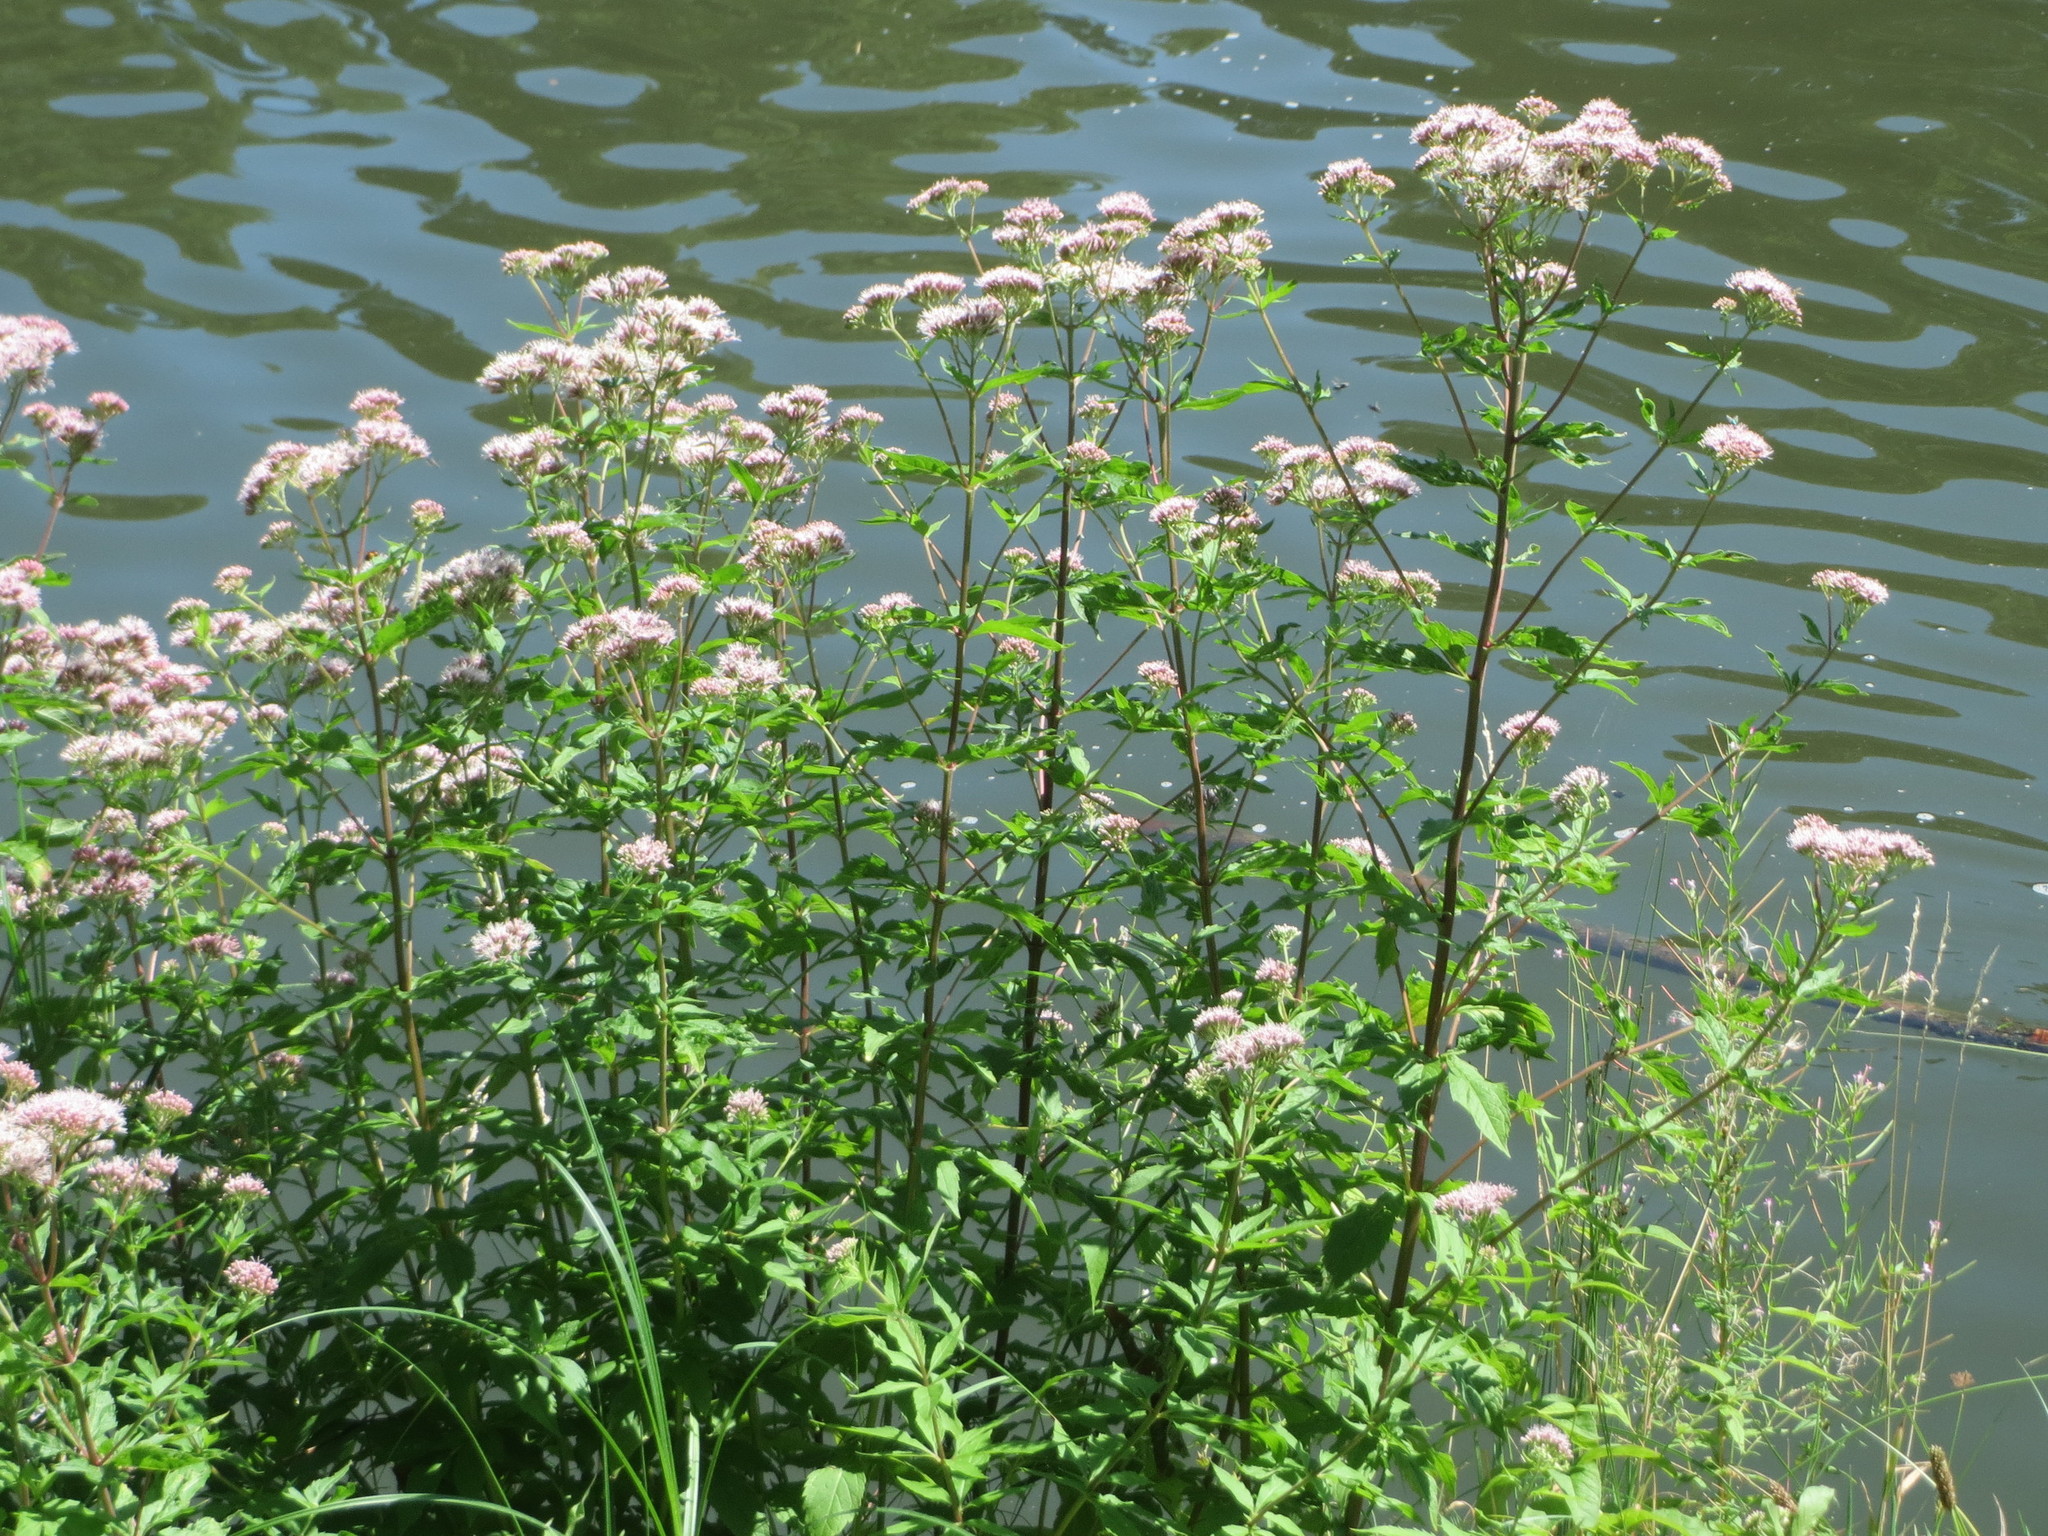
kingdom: Plantae
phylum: Tracheophyta
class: Magnoliopsida
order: Asterales
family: Asteraceae
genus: Eupatorium
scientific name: Eupatorium cannabinum
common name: Hemp-agrimony
